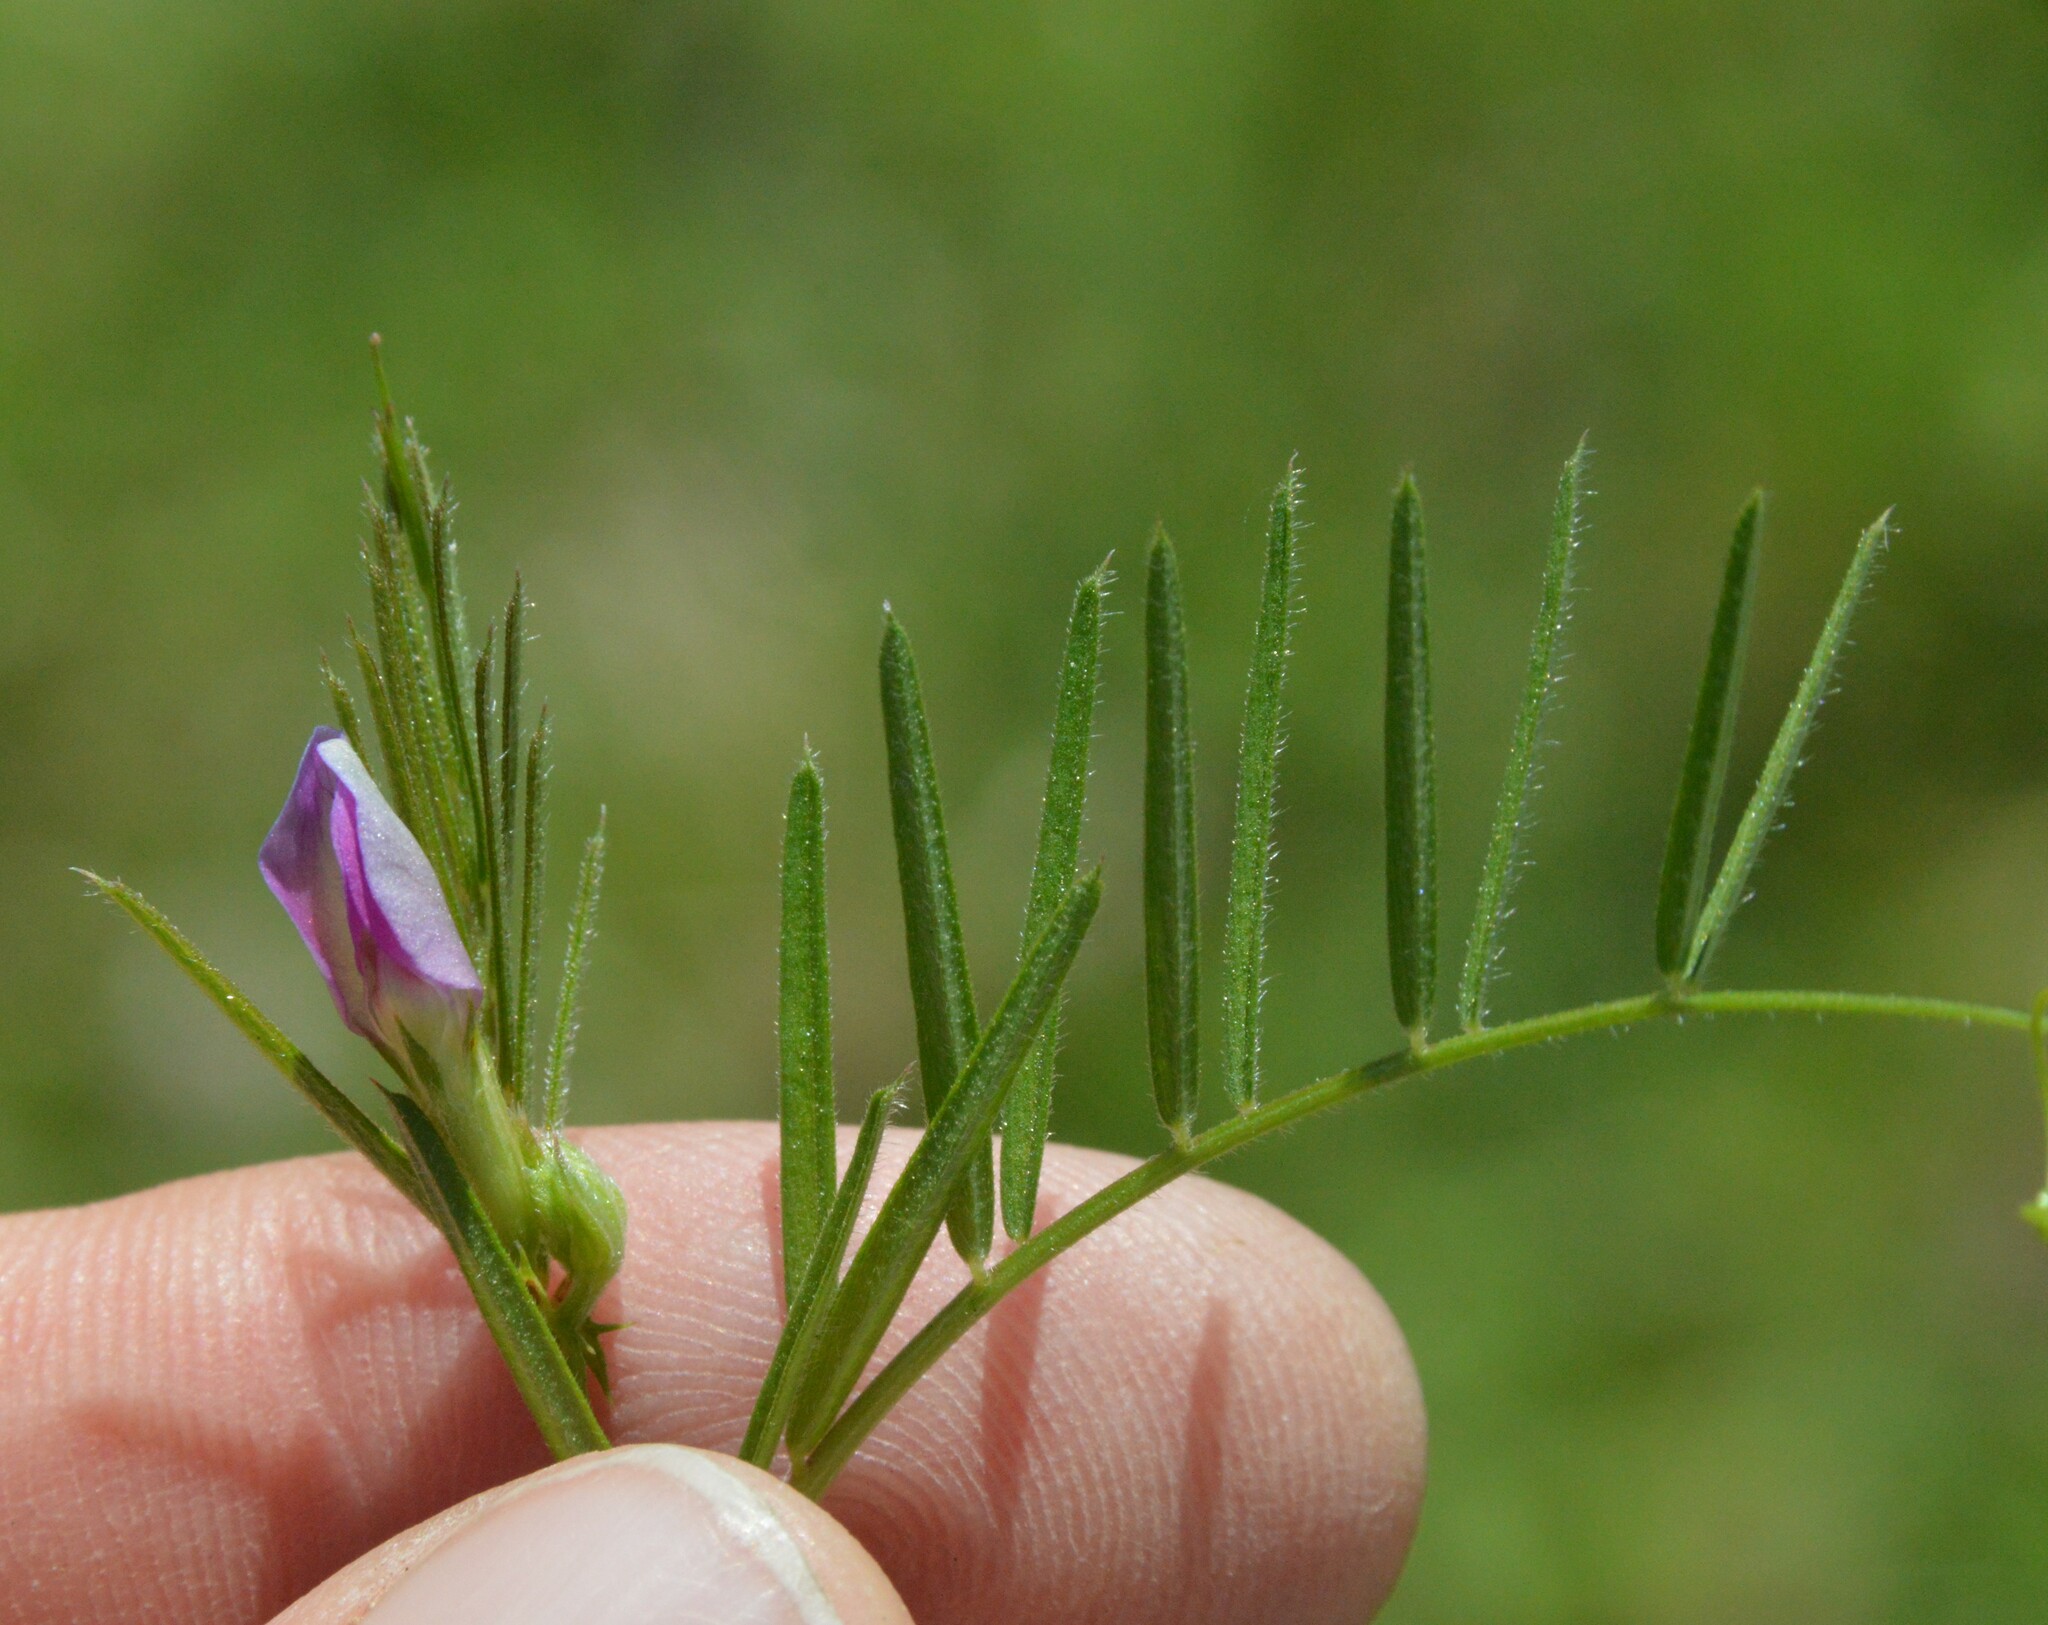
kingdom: Plantae
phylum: Tracheophyta
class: Magnoliopsida
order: Fabales
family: Fabaceae
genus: Vicia
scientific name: Vicia sativa
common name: Garden vetch
